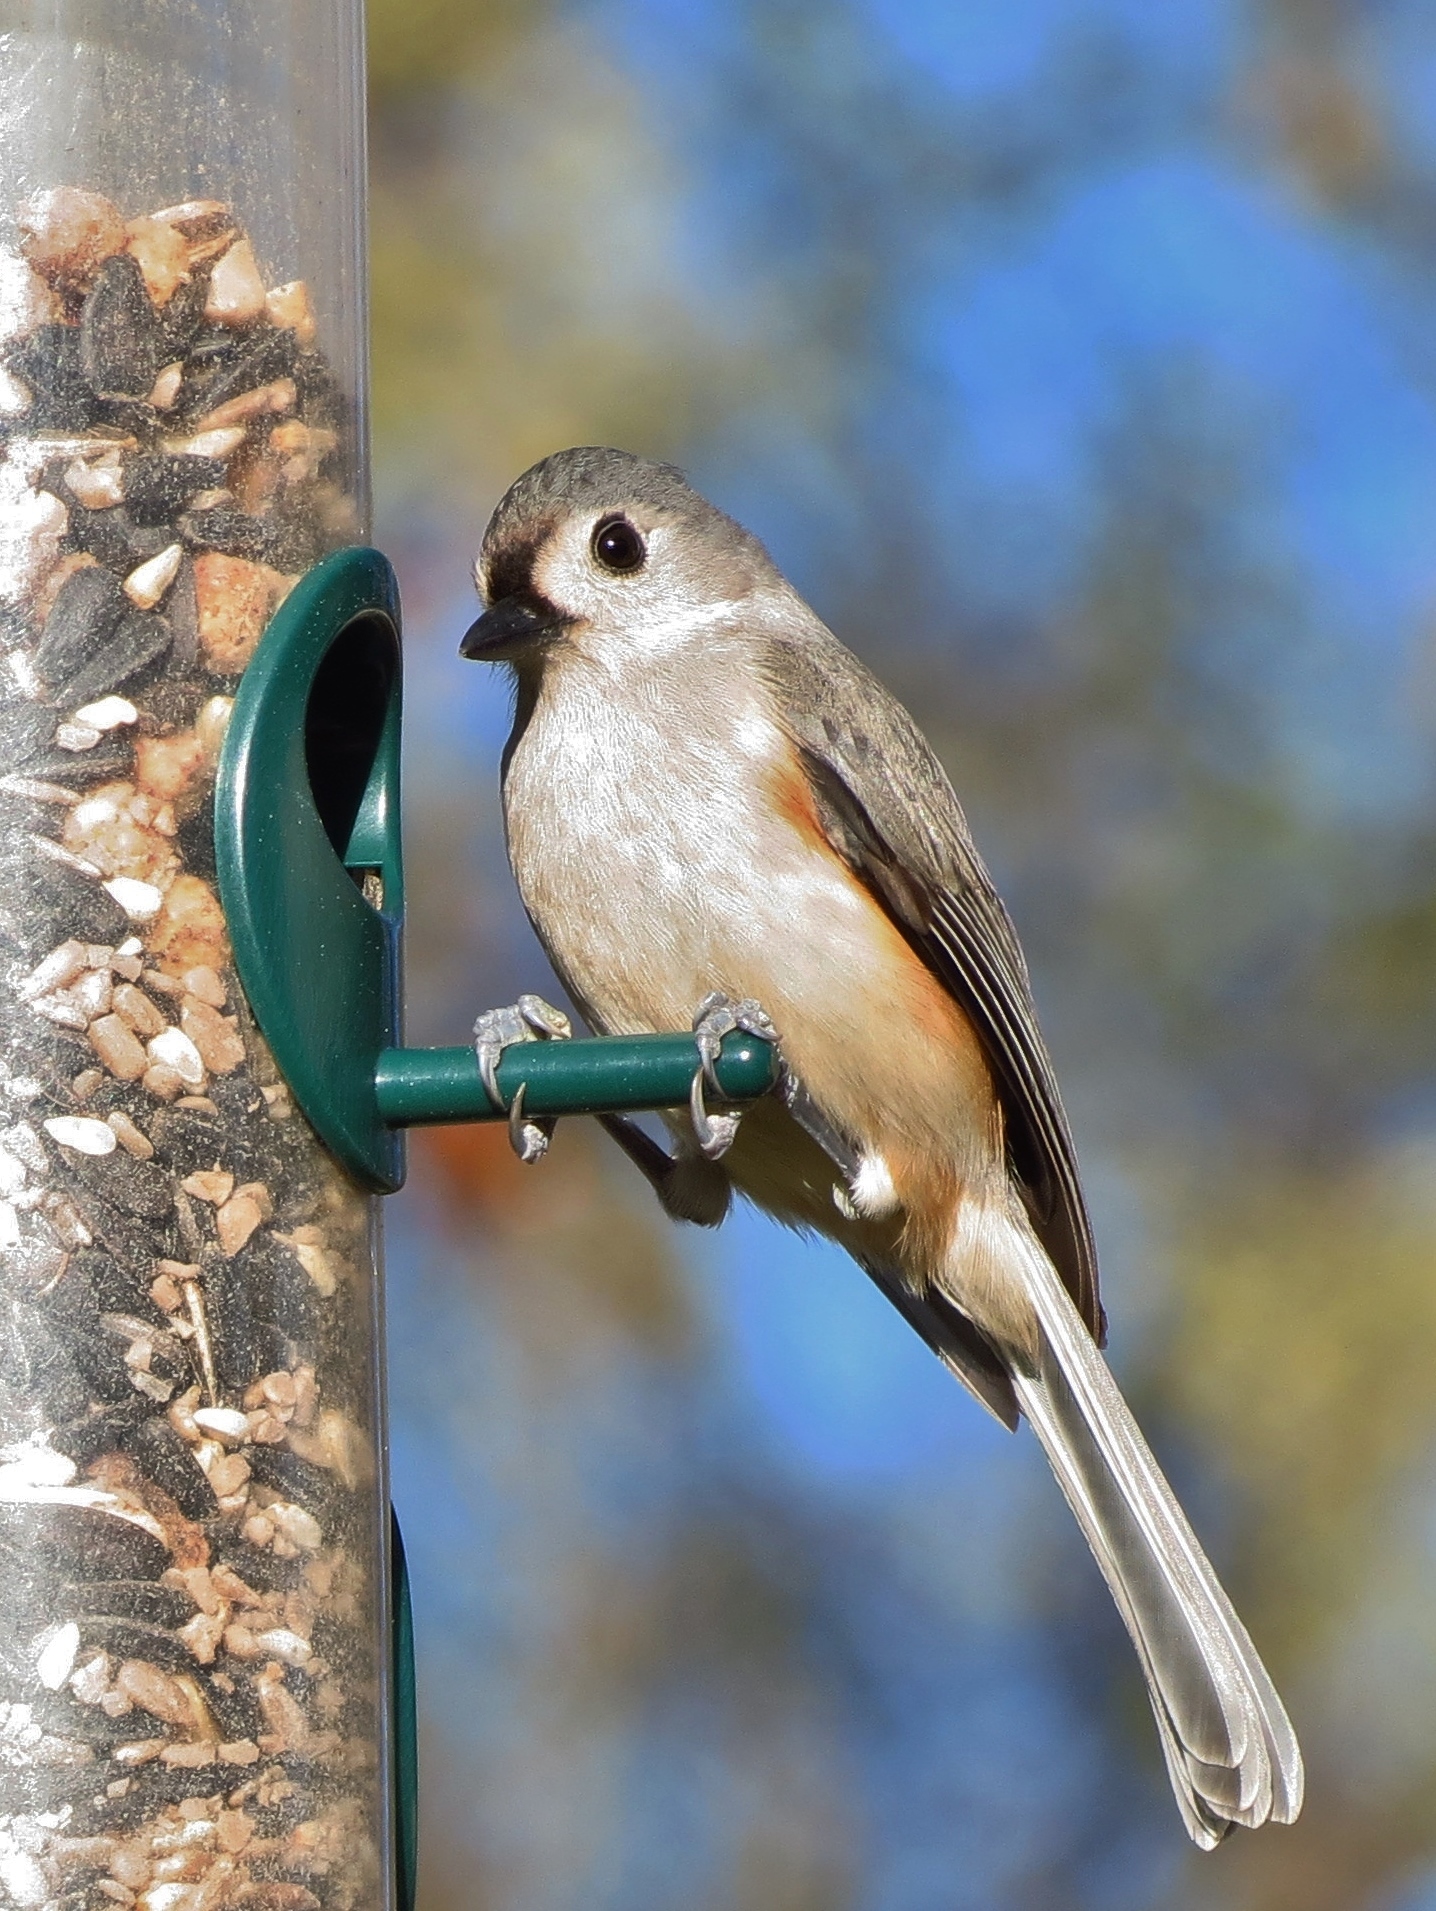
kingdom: Animalia
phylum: Chordata
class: Aves
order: Passeriformes
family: Paridae
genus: Baeolophus
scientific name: Baeolophus bicolor
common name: Tufted titmouse
